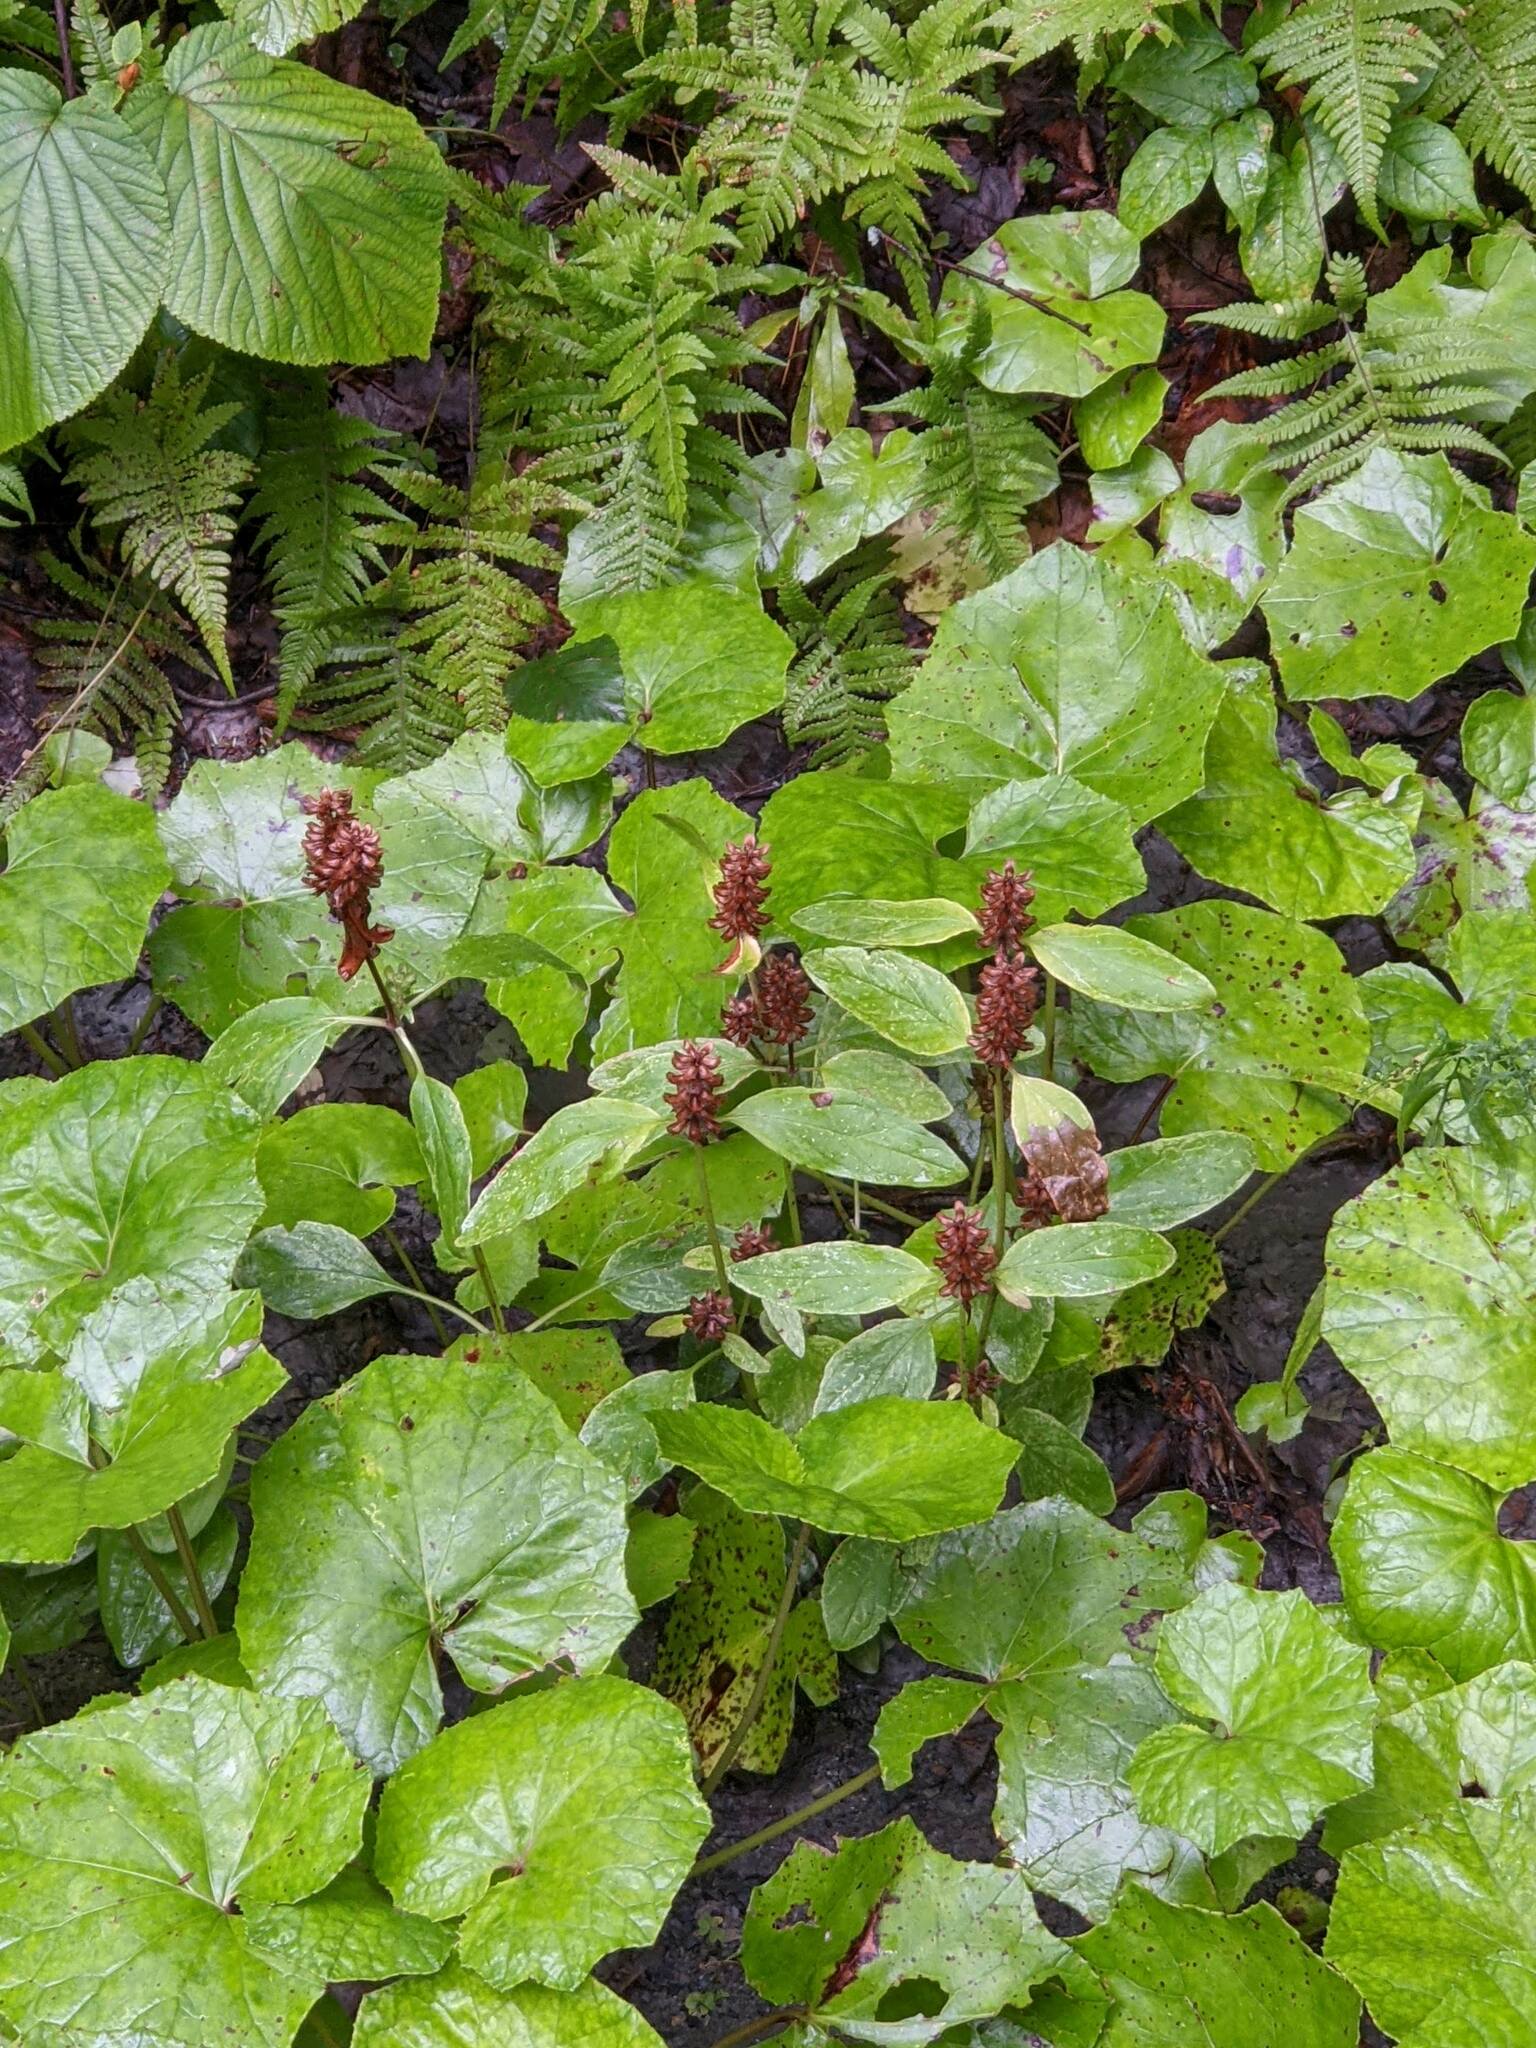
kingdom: Plantae
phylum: Tracheophyta
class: Magnoliopsida
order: Lamiales
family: Lamiaceae
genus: Prunella
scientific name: Prunella vulgaris
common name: Heal-all
